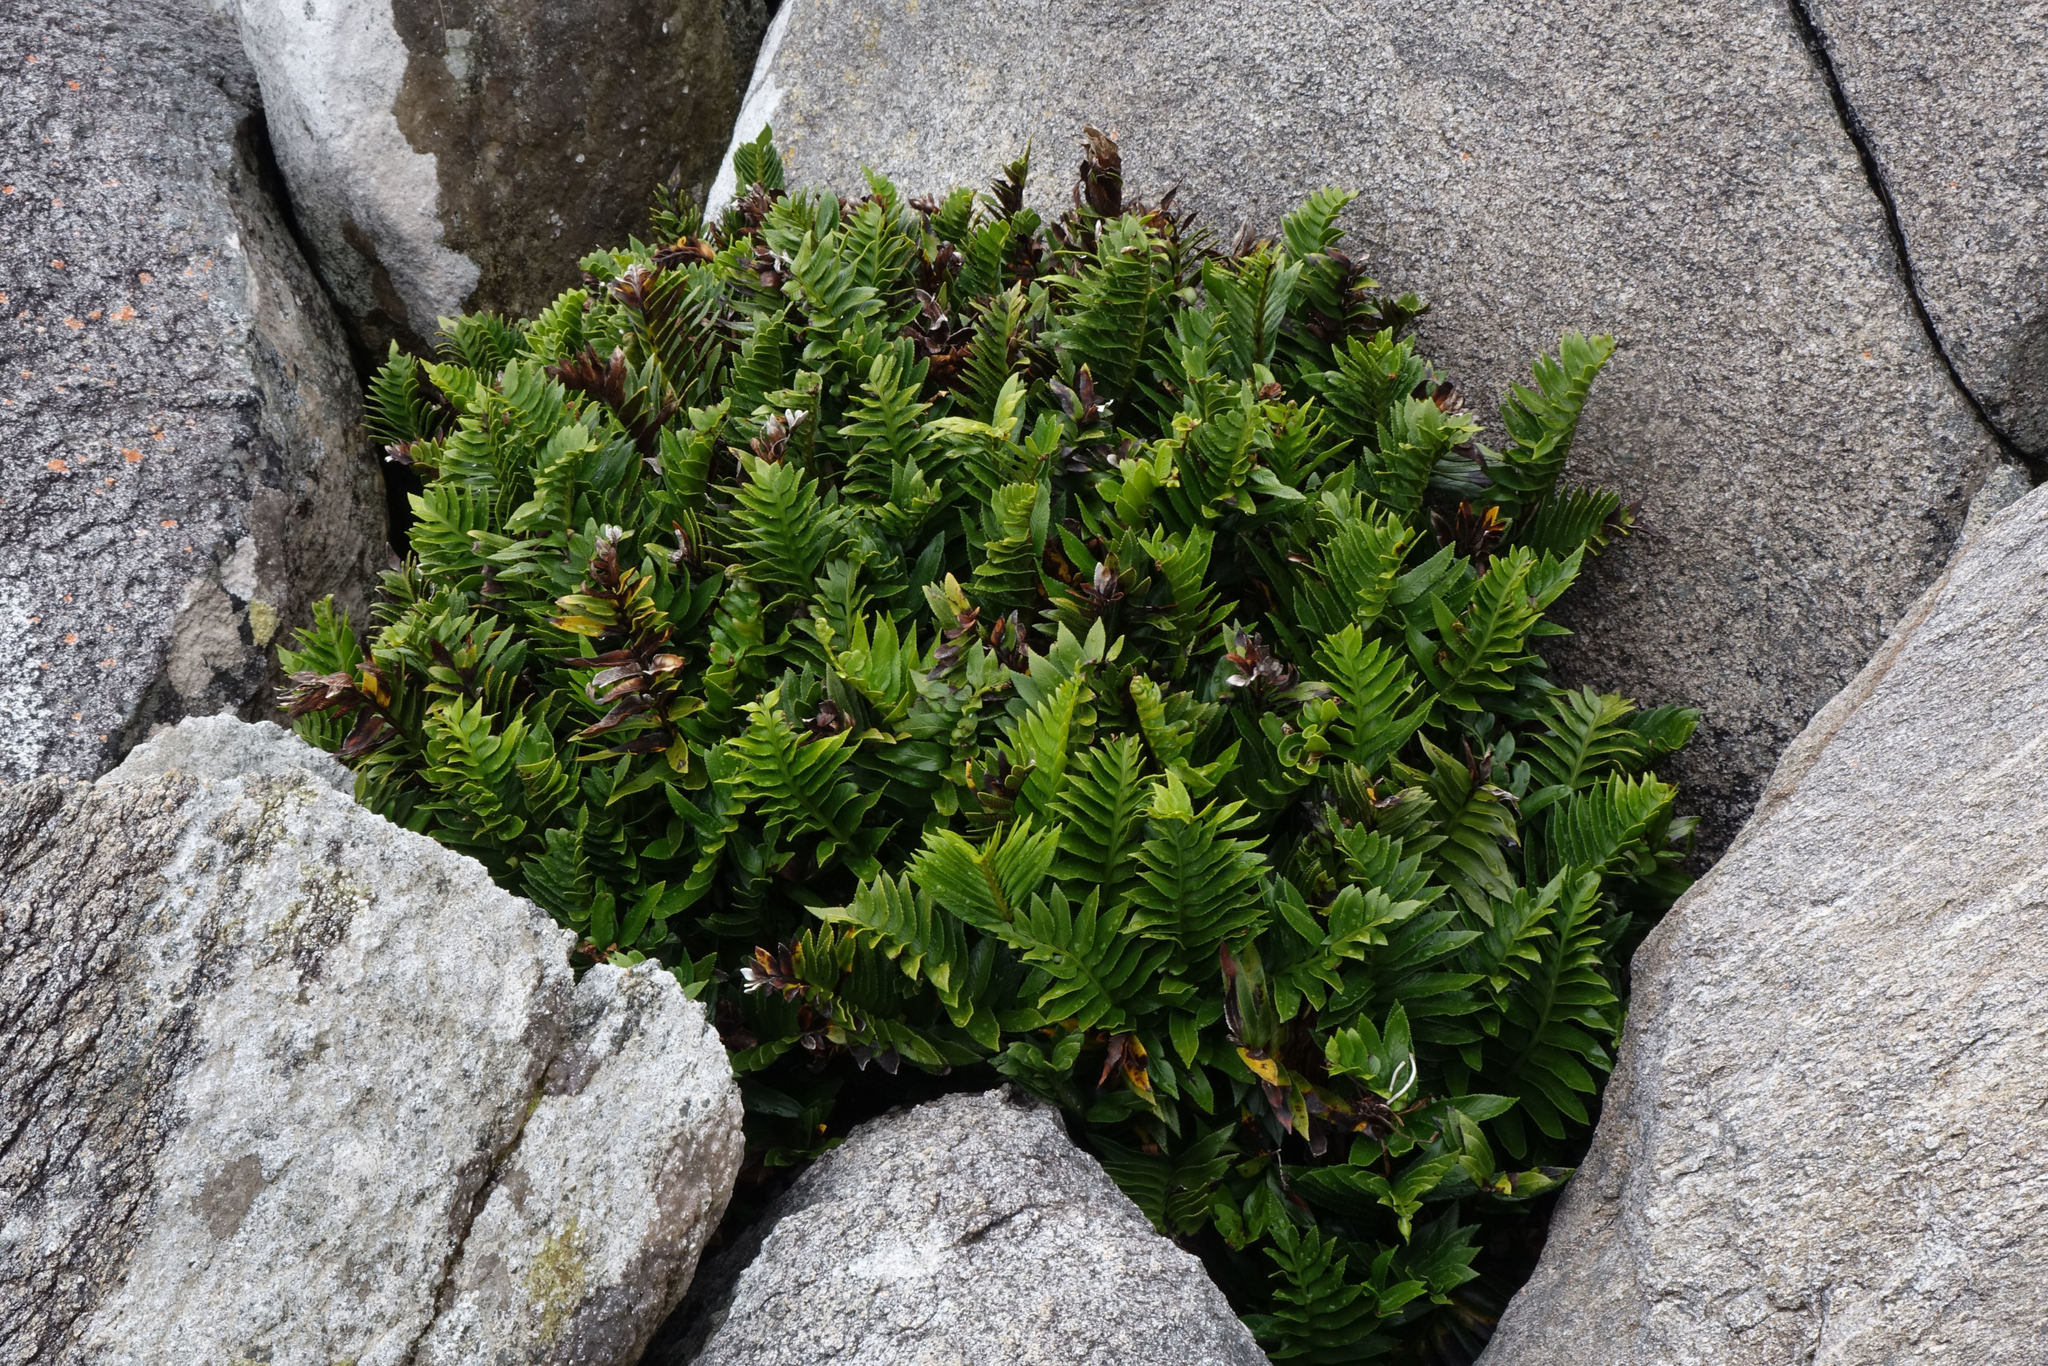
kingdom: Plantae
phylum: Tracheophyta
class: Polypodiopsida
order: Polypodiales
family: Aspleniaceae
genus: Asplenium
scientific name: Asplenium obtusatum
